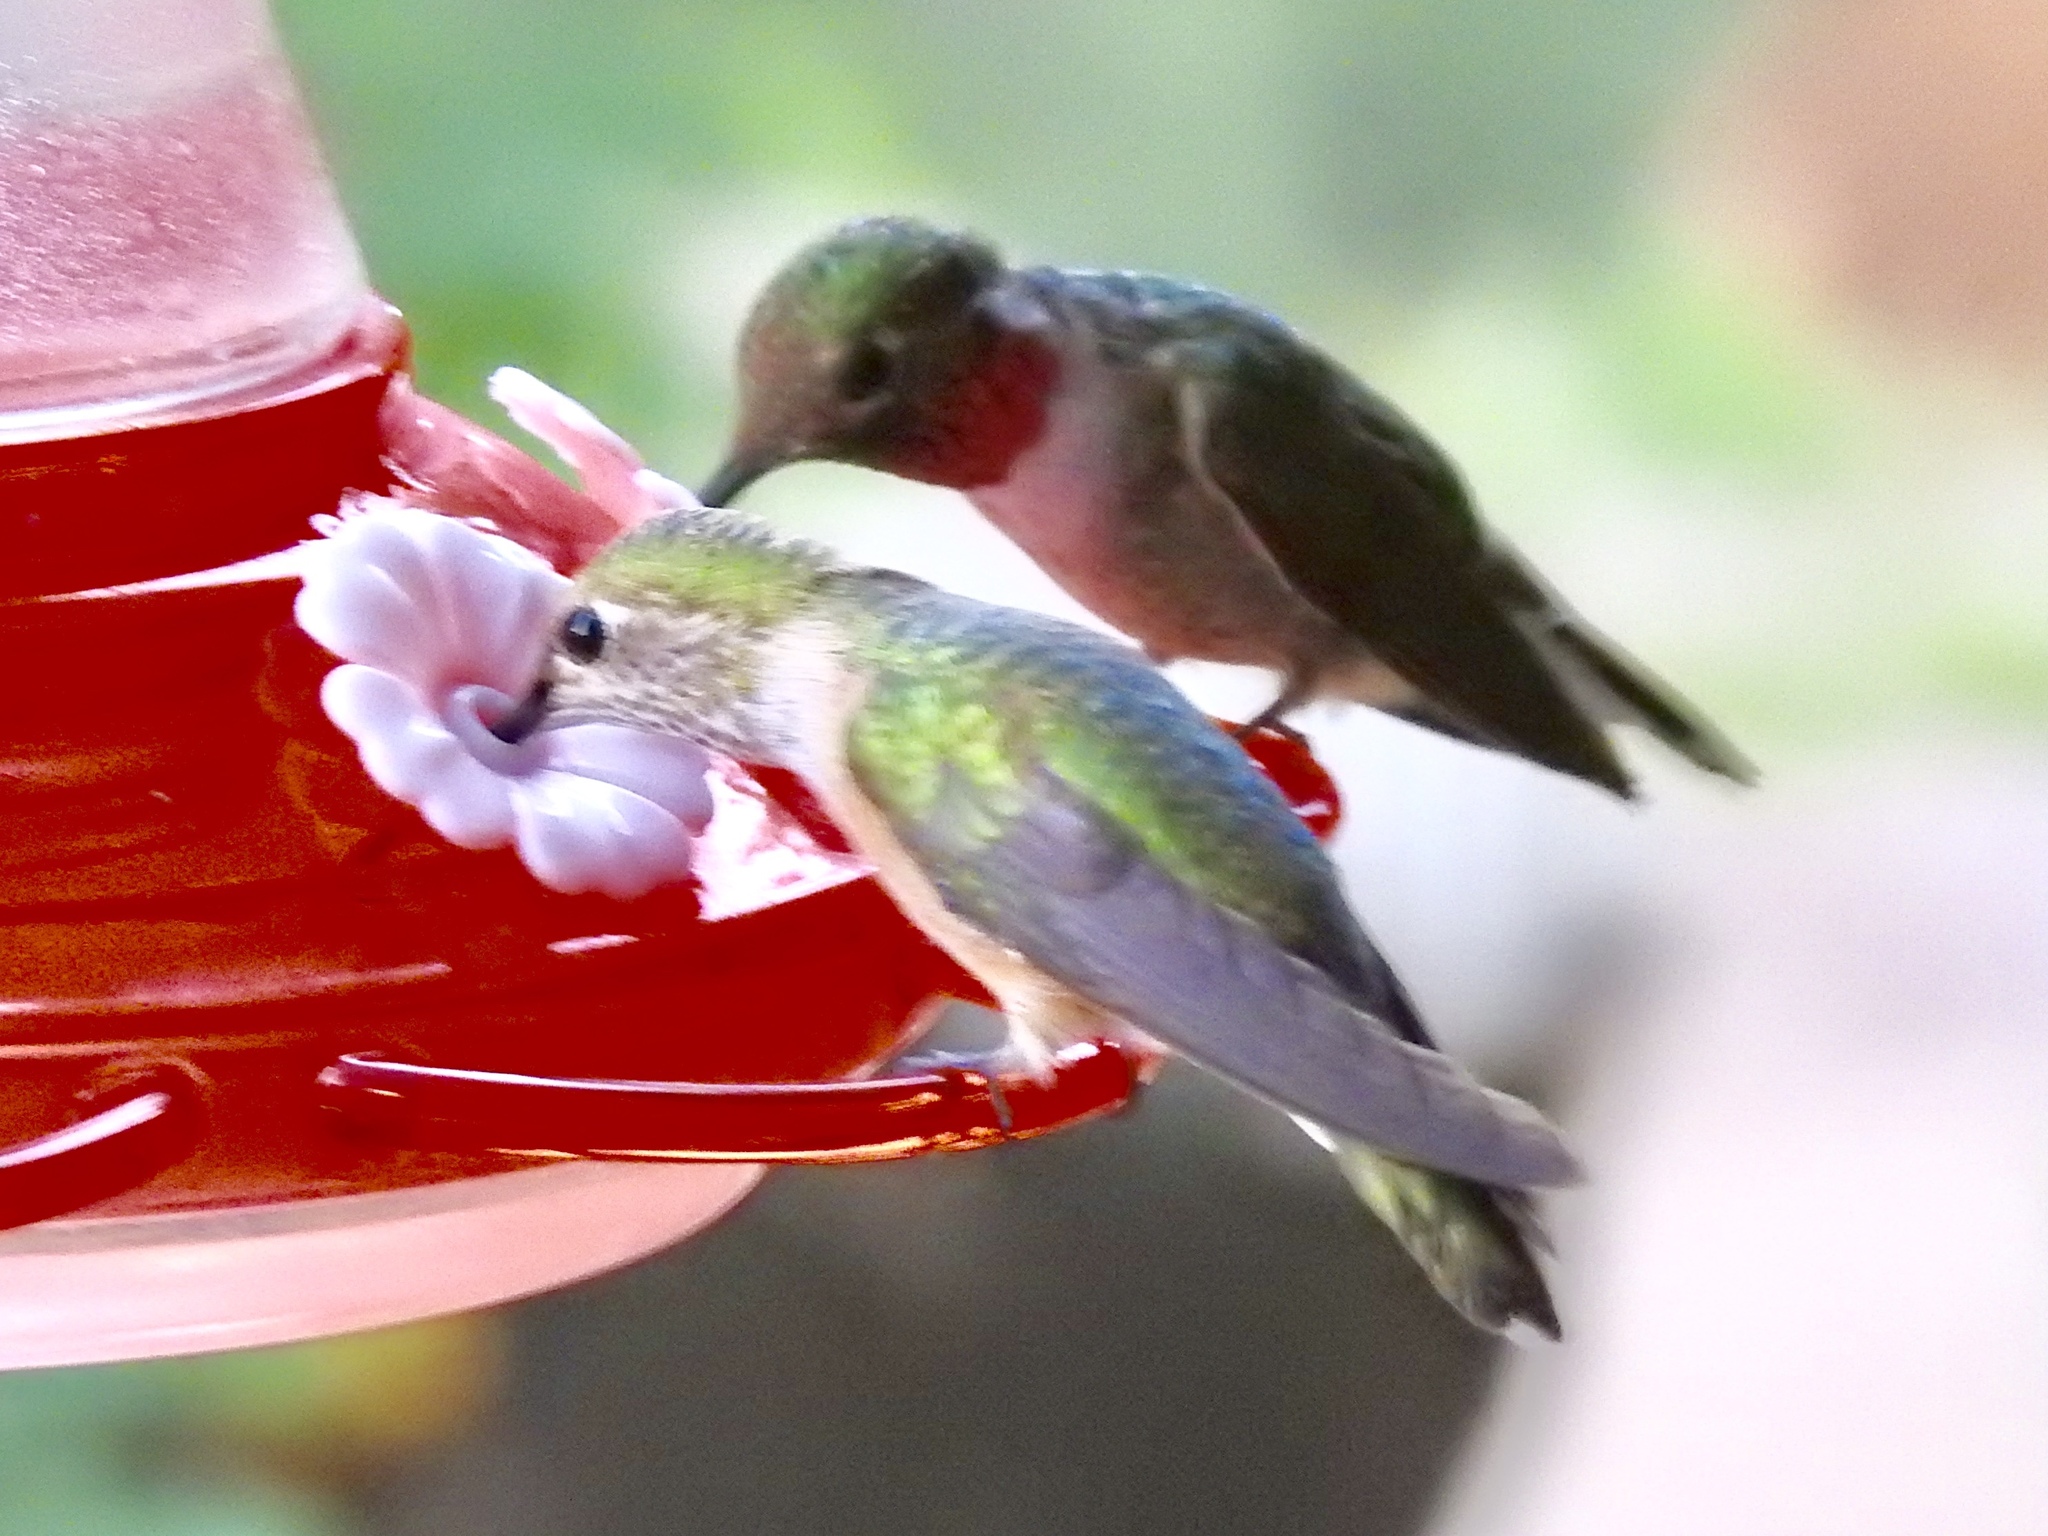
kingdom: Animalia
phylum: Chordata
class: Aves
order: Apodiformes
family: Trochilidae
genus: Selasphorus
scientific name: Selasphorus platycercus
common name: Broad-tailed hummingbird
